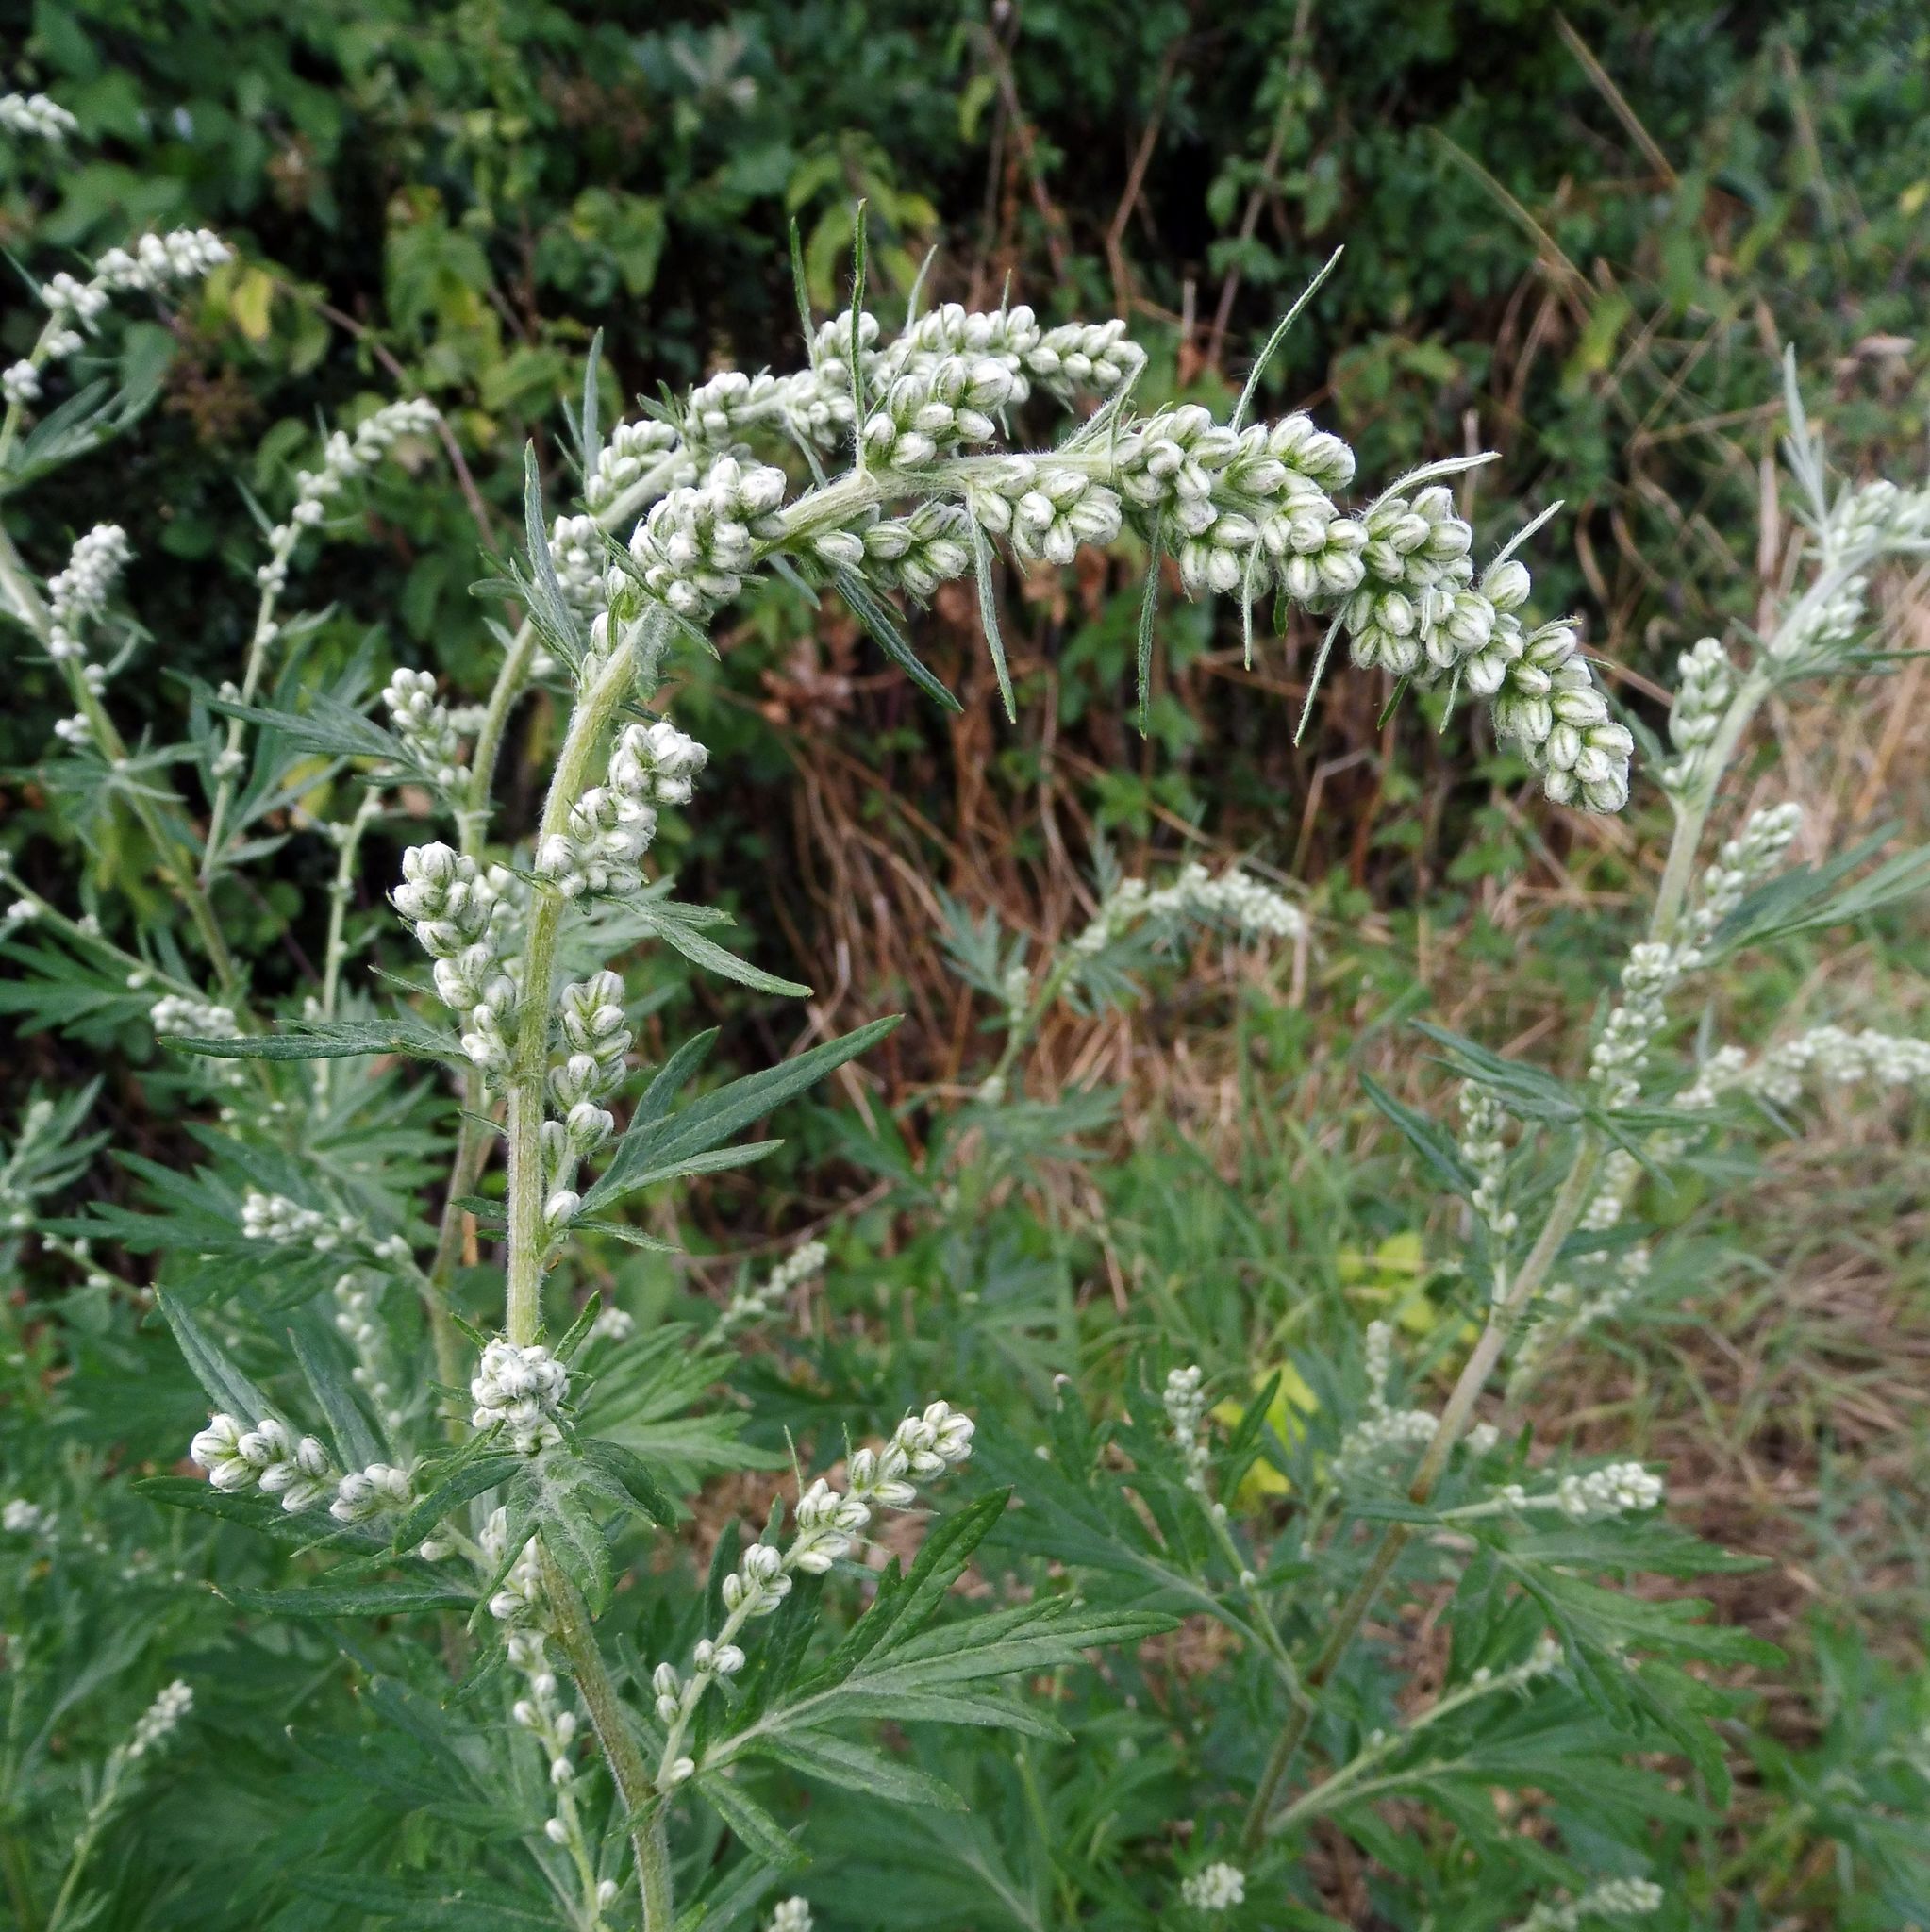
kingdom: Plantae
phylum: Tracheophyta
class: Magnoliopsida
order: Asterales
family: Asteraceae
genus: Artemisia
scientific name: Artemisia vulgaris
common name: Mugwort
